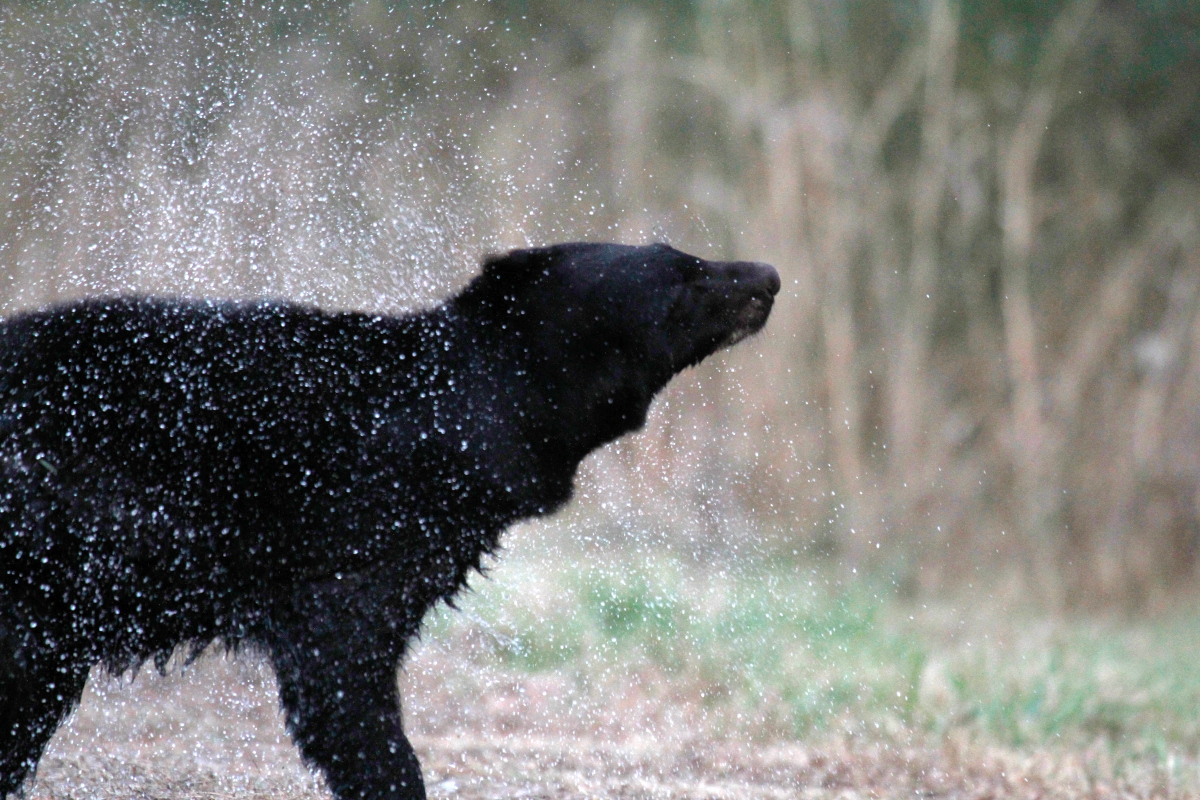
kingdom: Animalia
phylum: Chordata
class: Mammalia
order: Carnivora
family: Ursidae
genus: Ursus
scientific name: Ursus americanus
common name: American black bear
